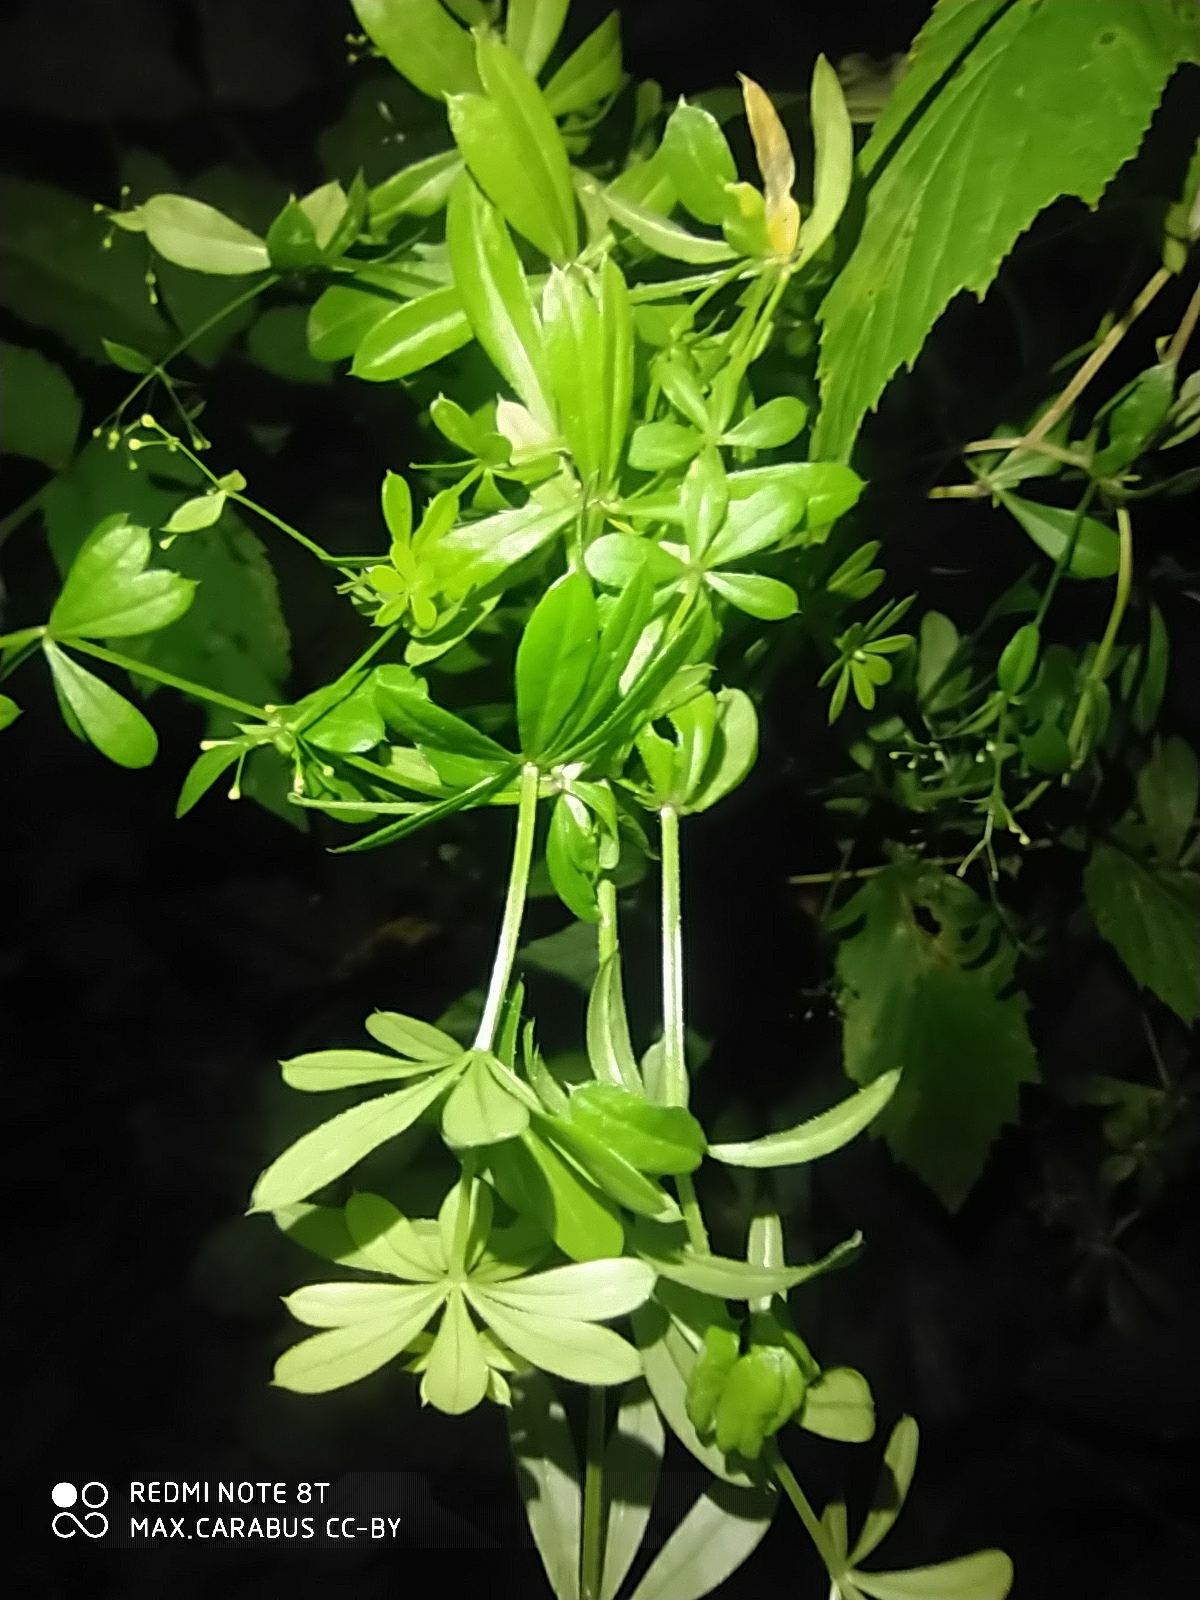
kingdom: Plantae
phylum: Tracheophyta
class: Magnoliopsida
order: Gentianales
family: Rubiaceae
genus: Galium
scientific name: Galium rivale
